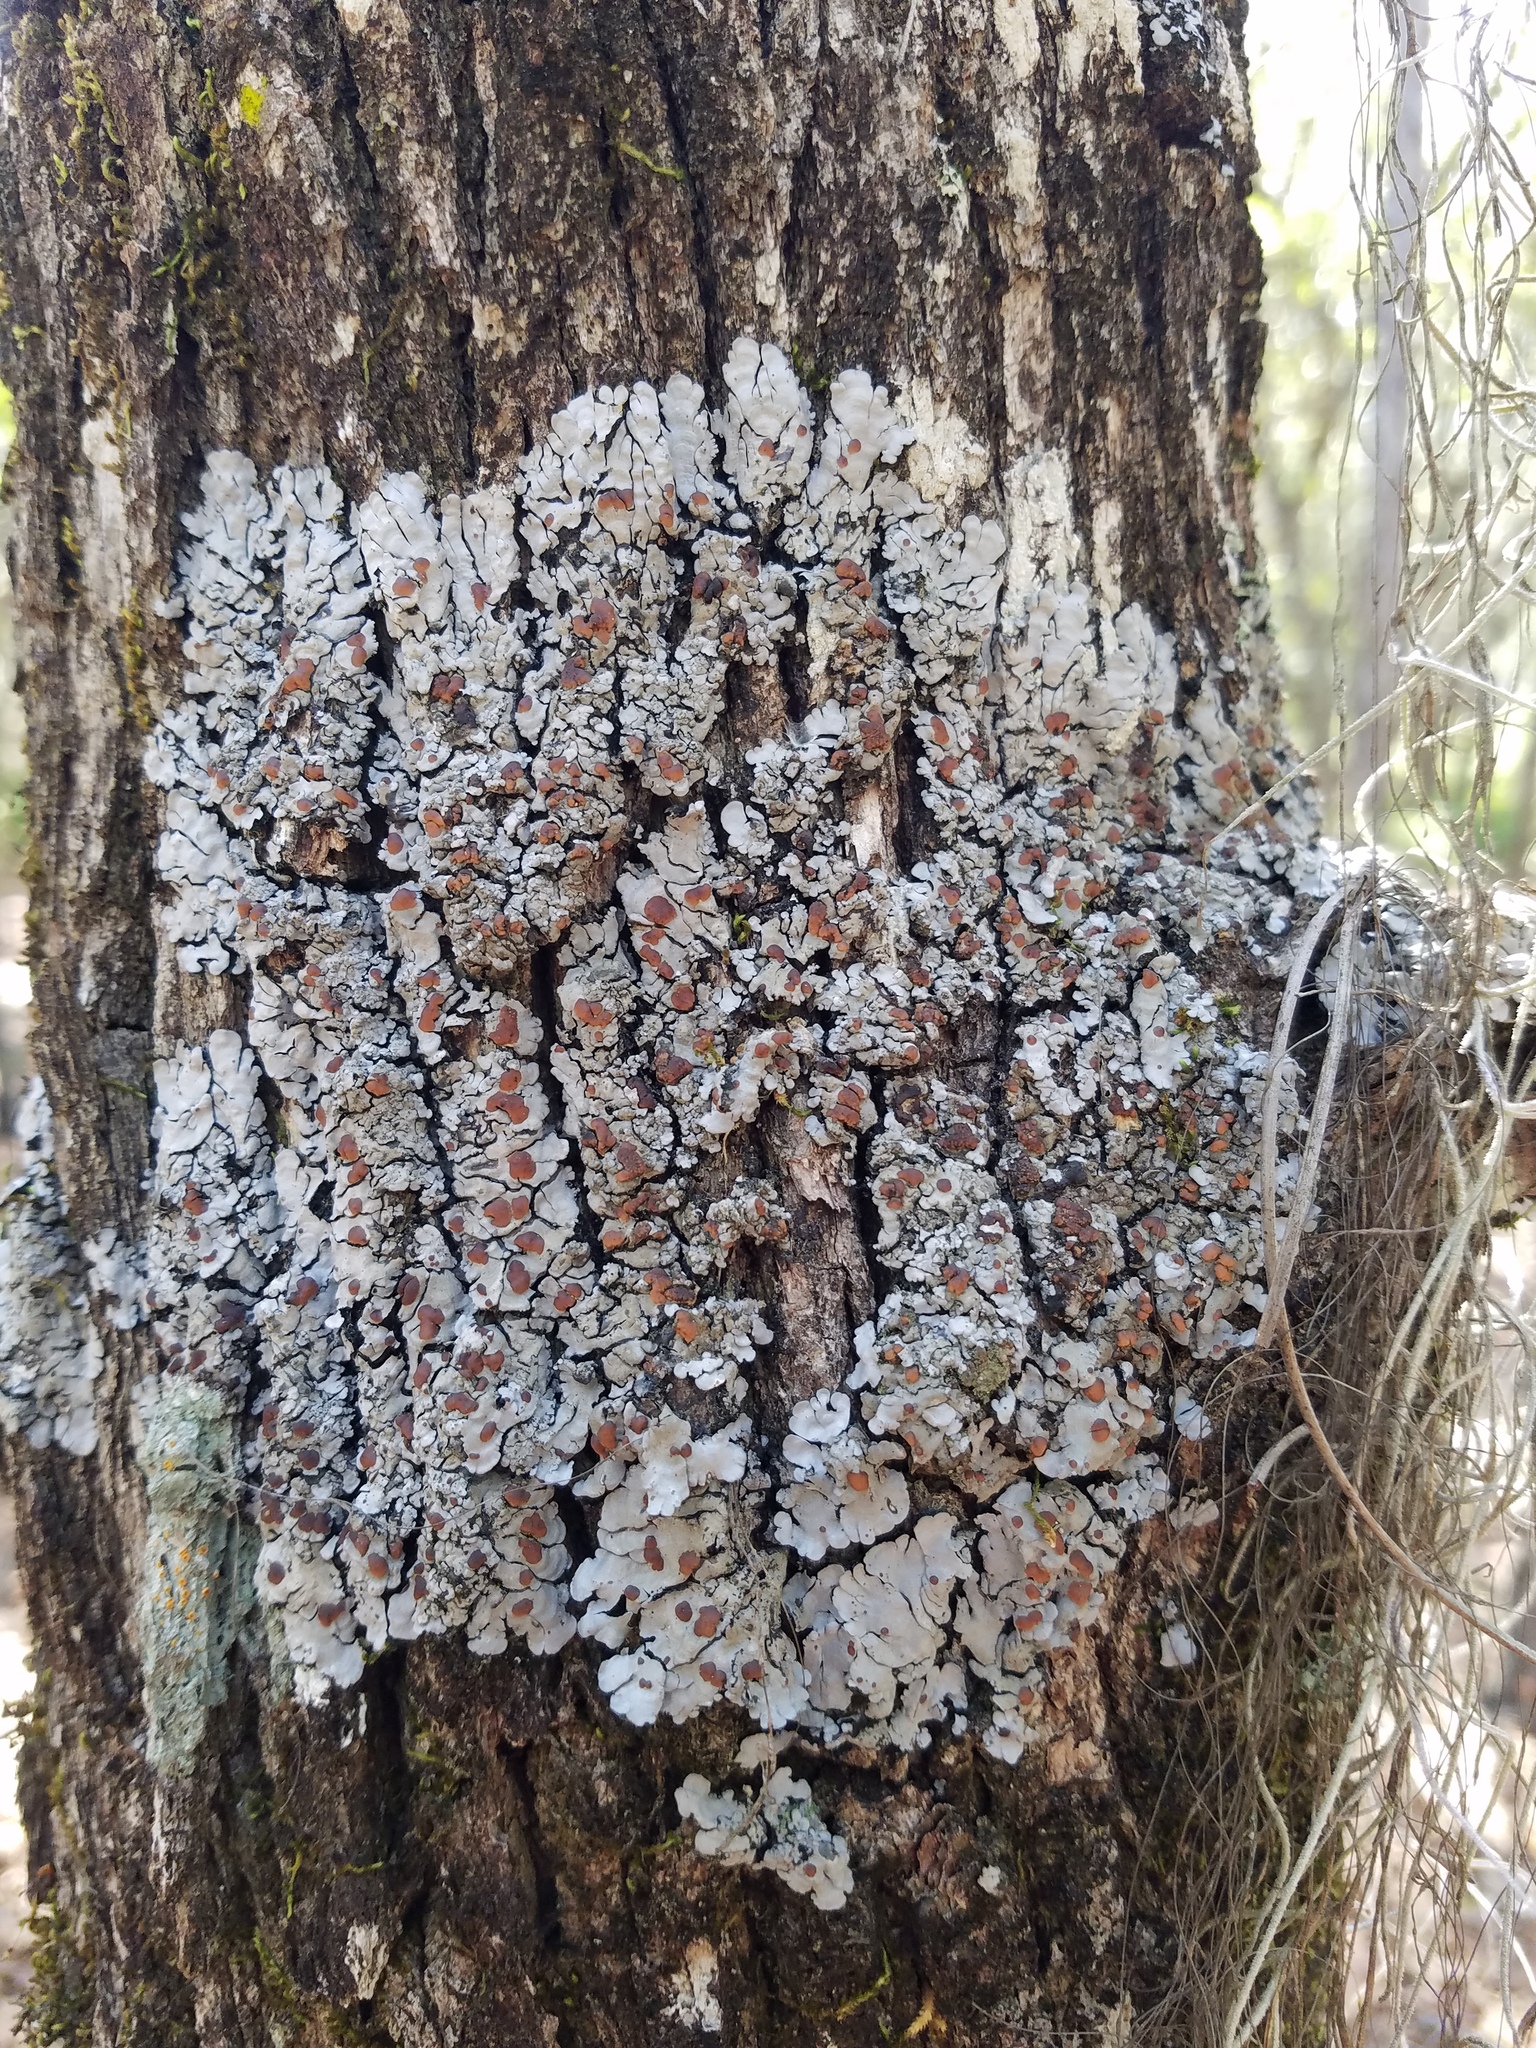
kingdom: Fungi
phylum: Ascomycota
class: Lecanoromycetes
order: Peltigerales
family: Coccocarpiaceae
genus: Coccocarpia
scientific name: Coccocarpia erythroxyli
